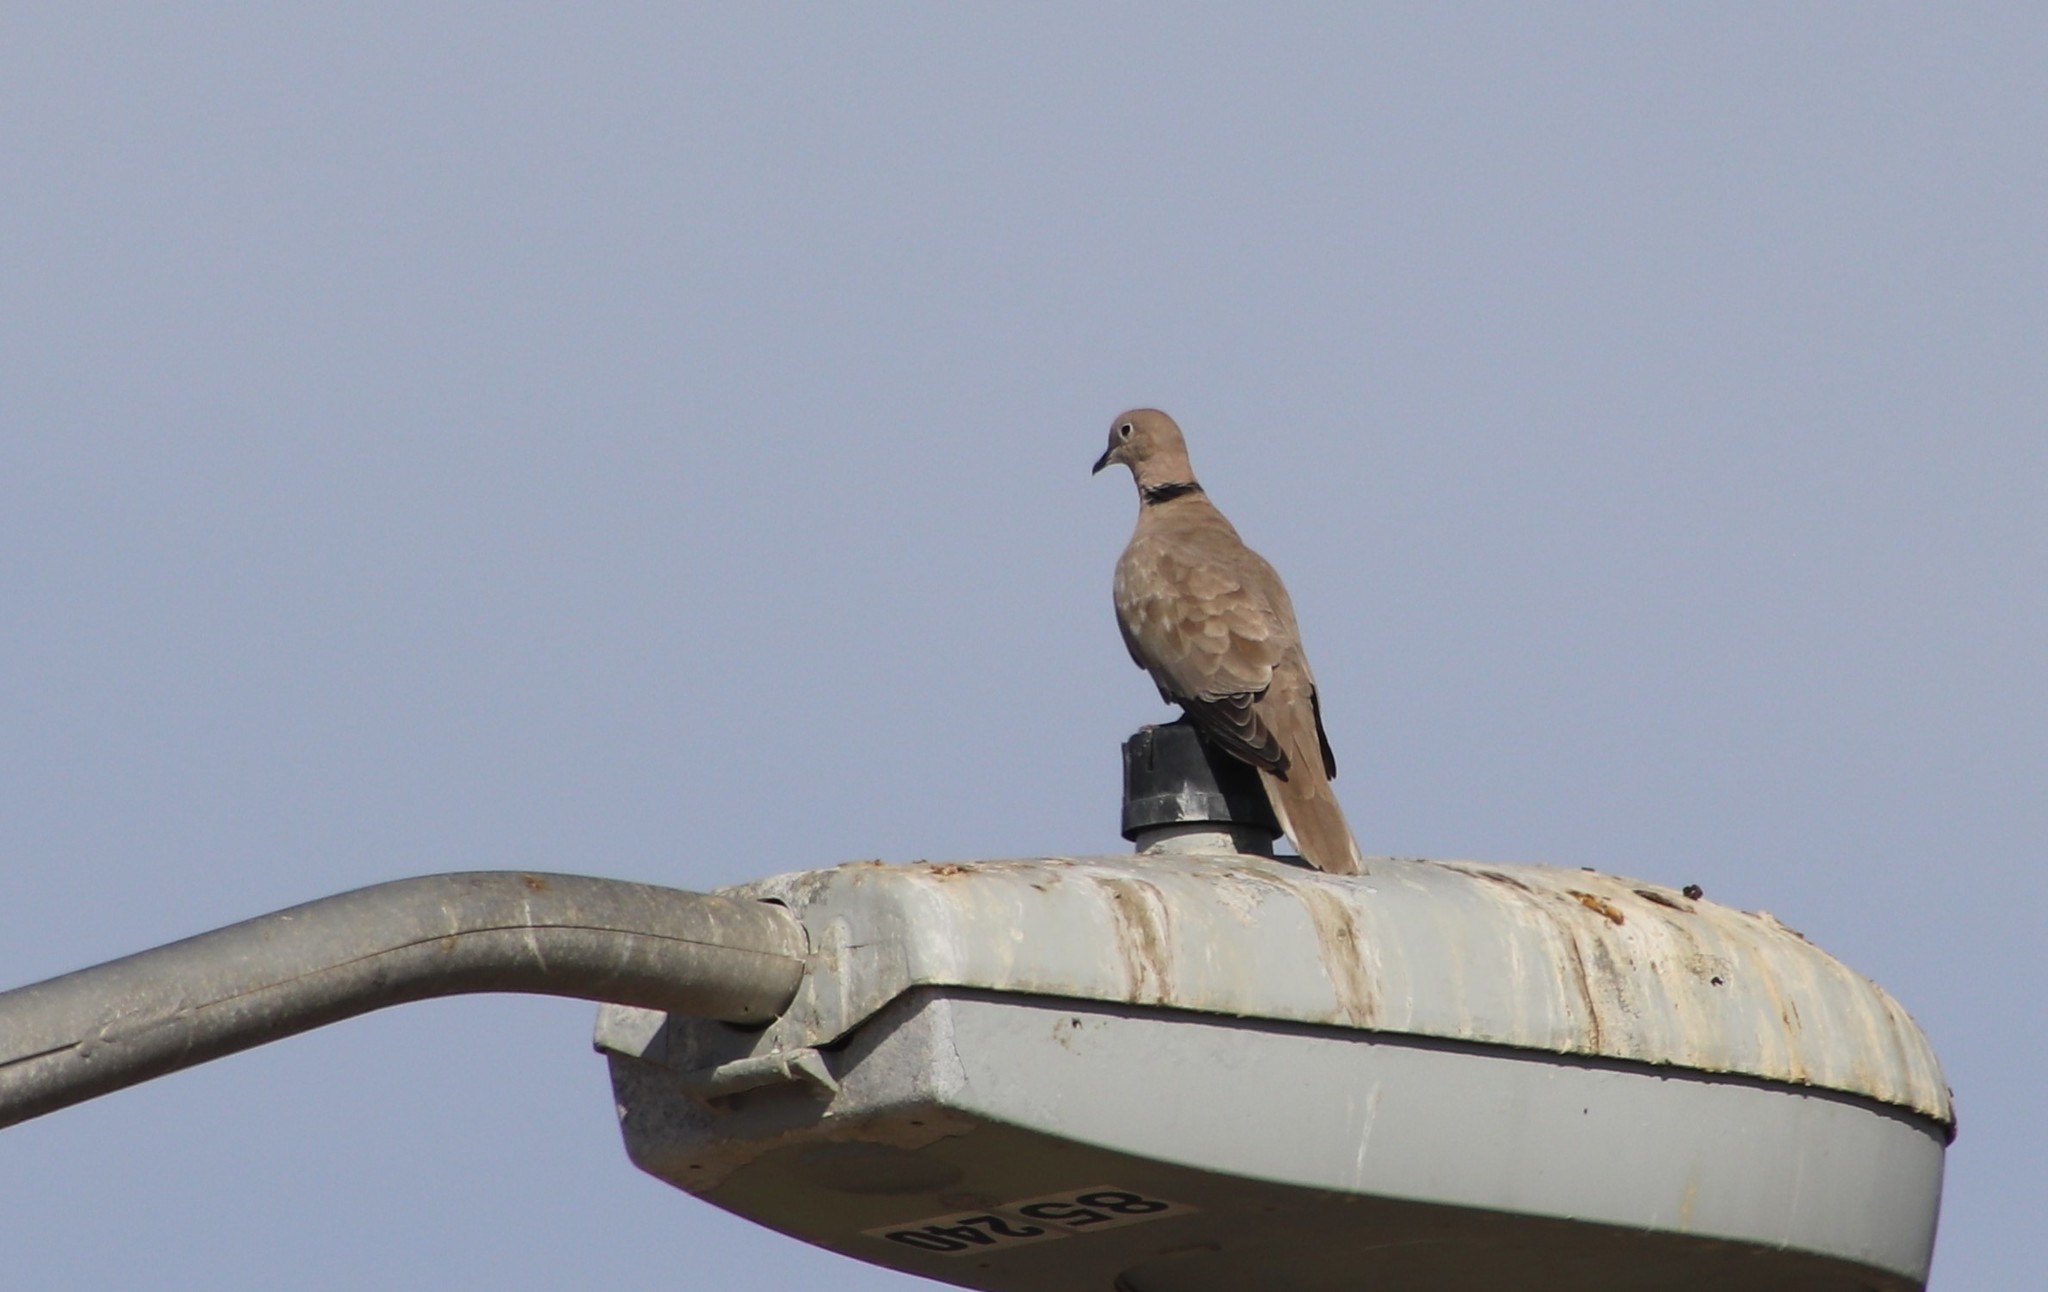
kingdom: Animalia
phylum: Chordata
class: Aves
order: Columbiformes
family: Columbidae
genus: Streptopelia
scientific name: Streptopelia decaocto
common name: Eurasian collared dove
